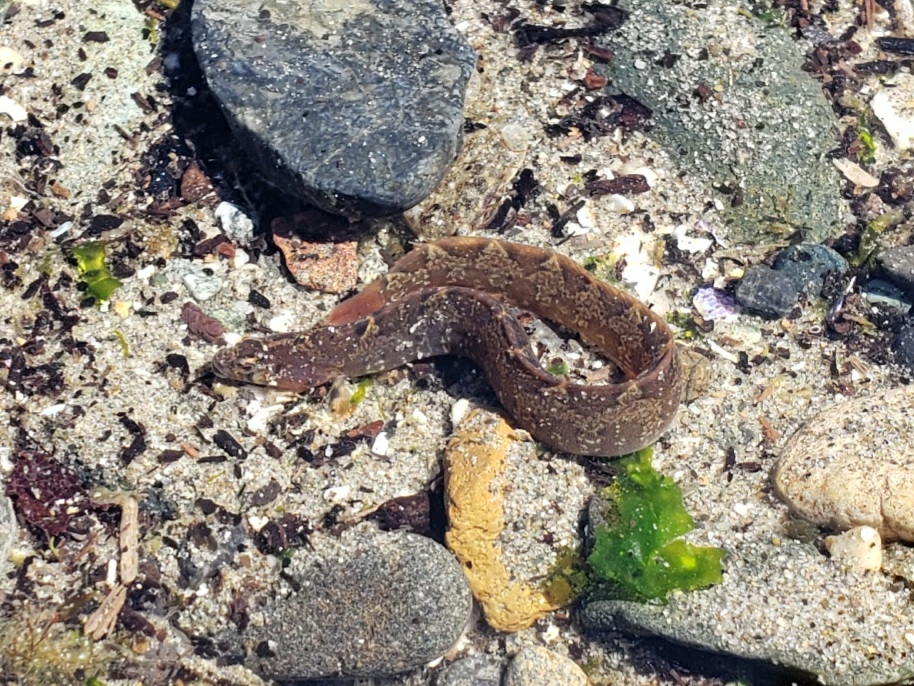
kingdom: Animalia
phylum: Chordata
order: Perciformes
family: Pholidae
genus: Pholis
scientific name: Pholis ornata
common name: Saddleback gunnel
